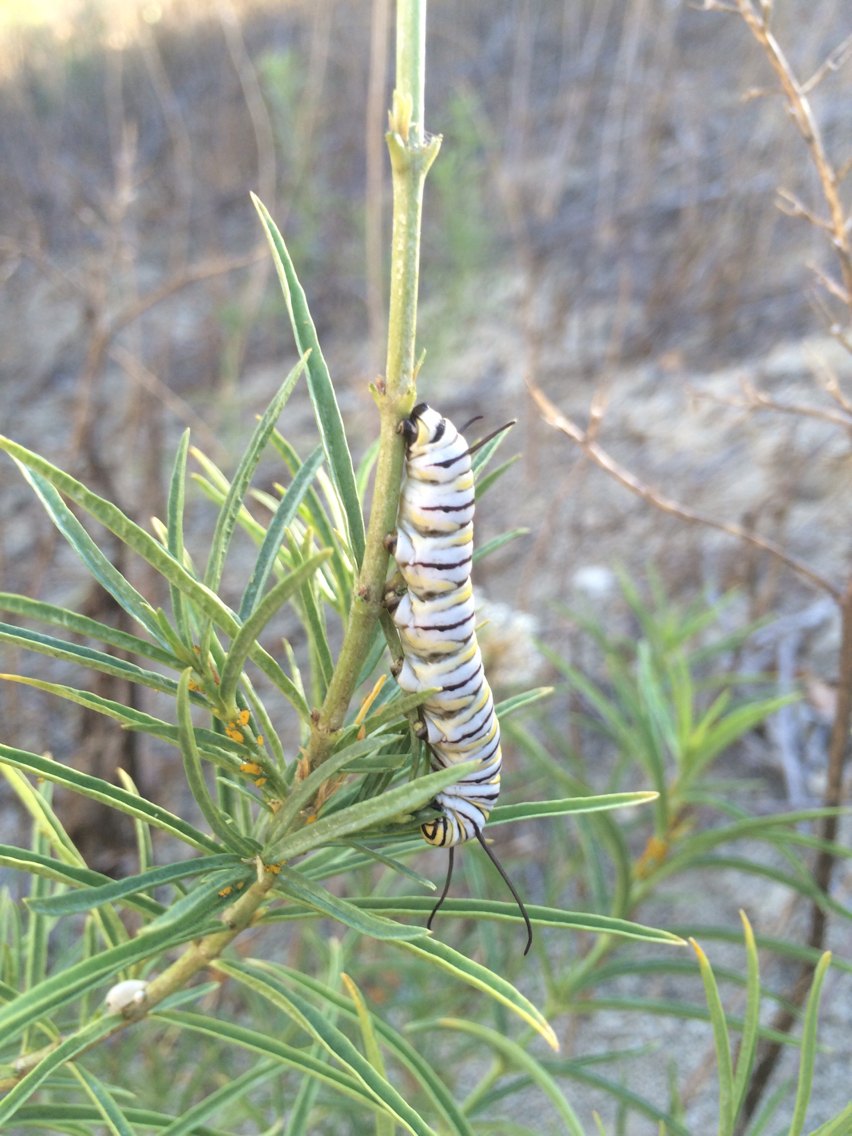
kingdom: Animalia
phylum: Arthropoda
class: Insecta
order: Lepidoptera
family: Nymphalidae
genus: Danaus
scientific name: Danaus plexippus
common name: Monarch
